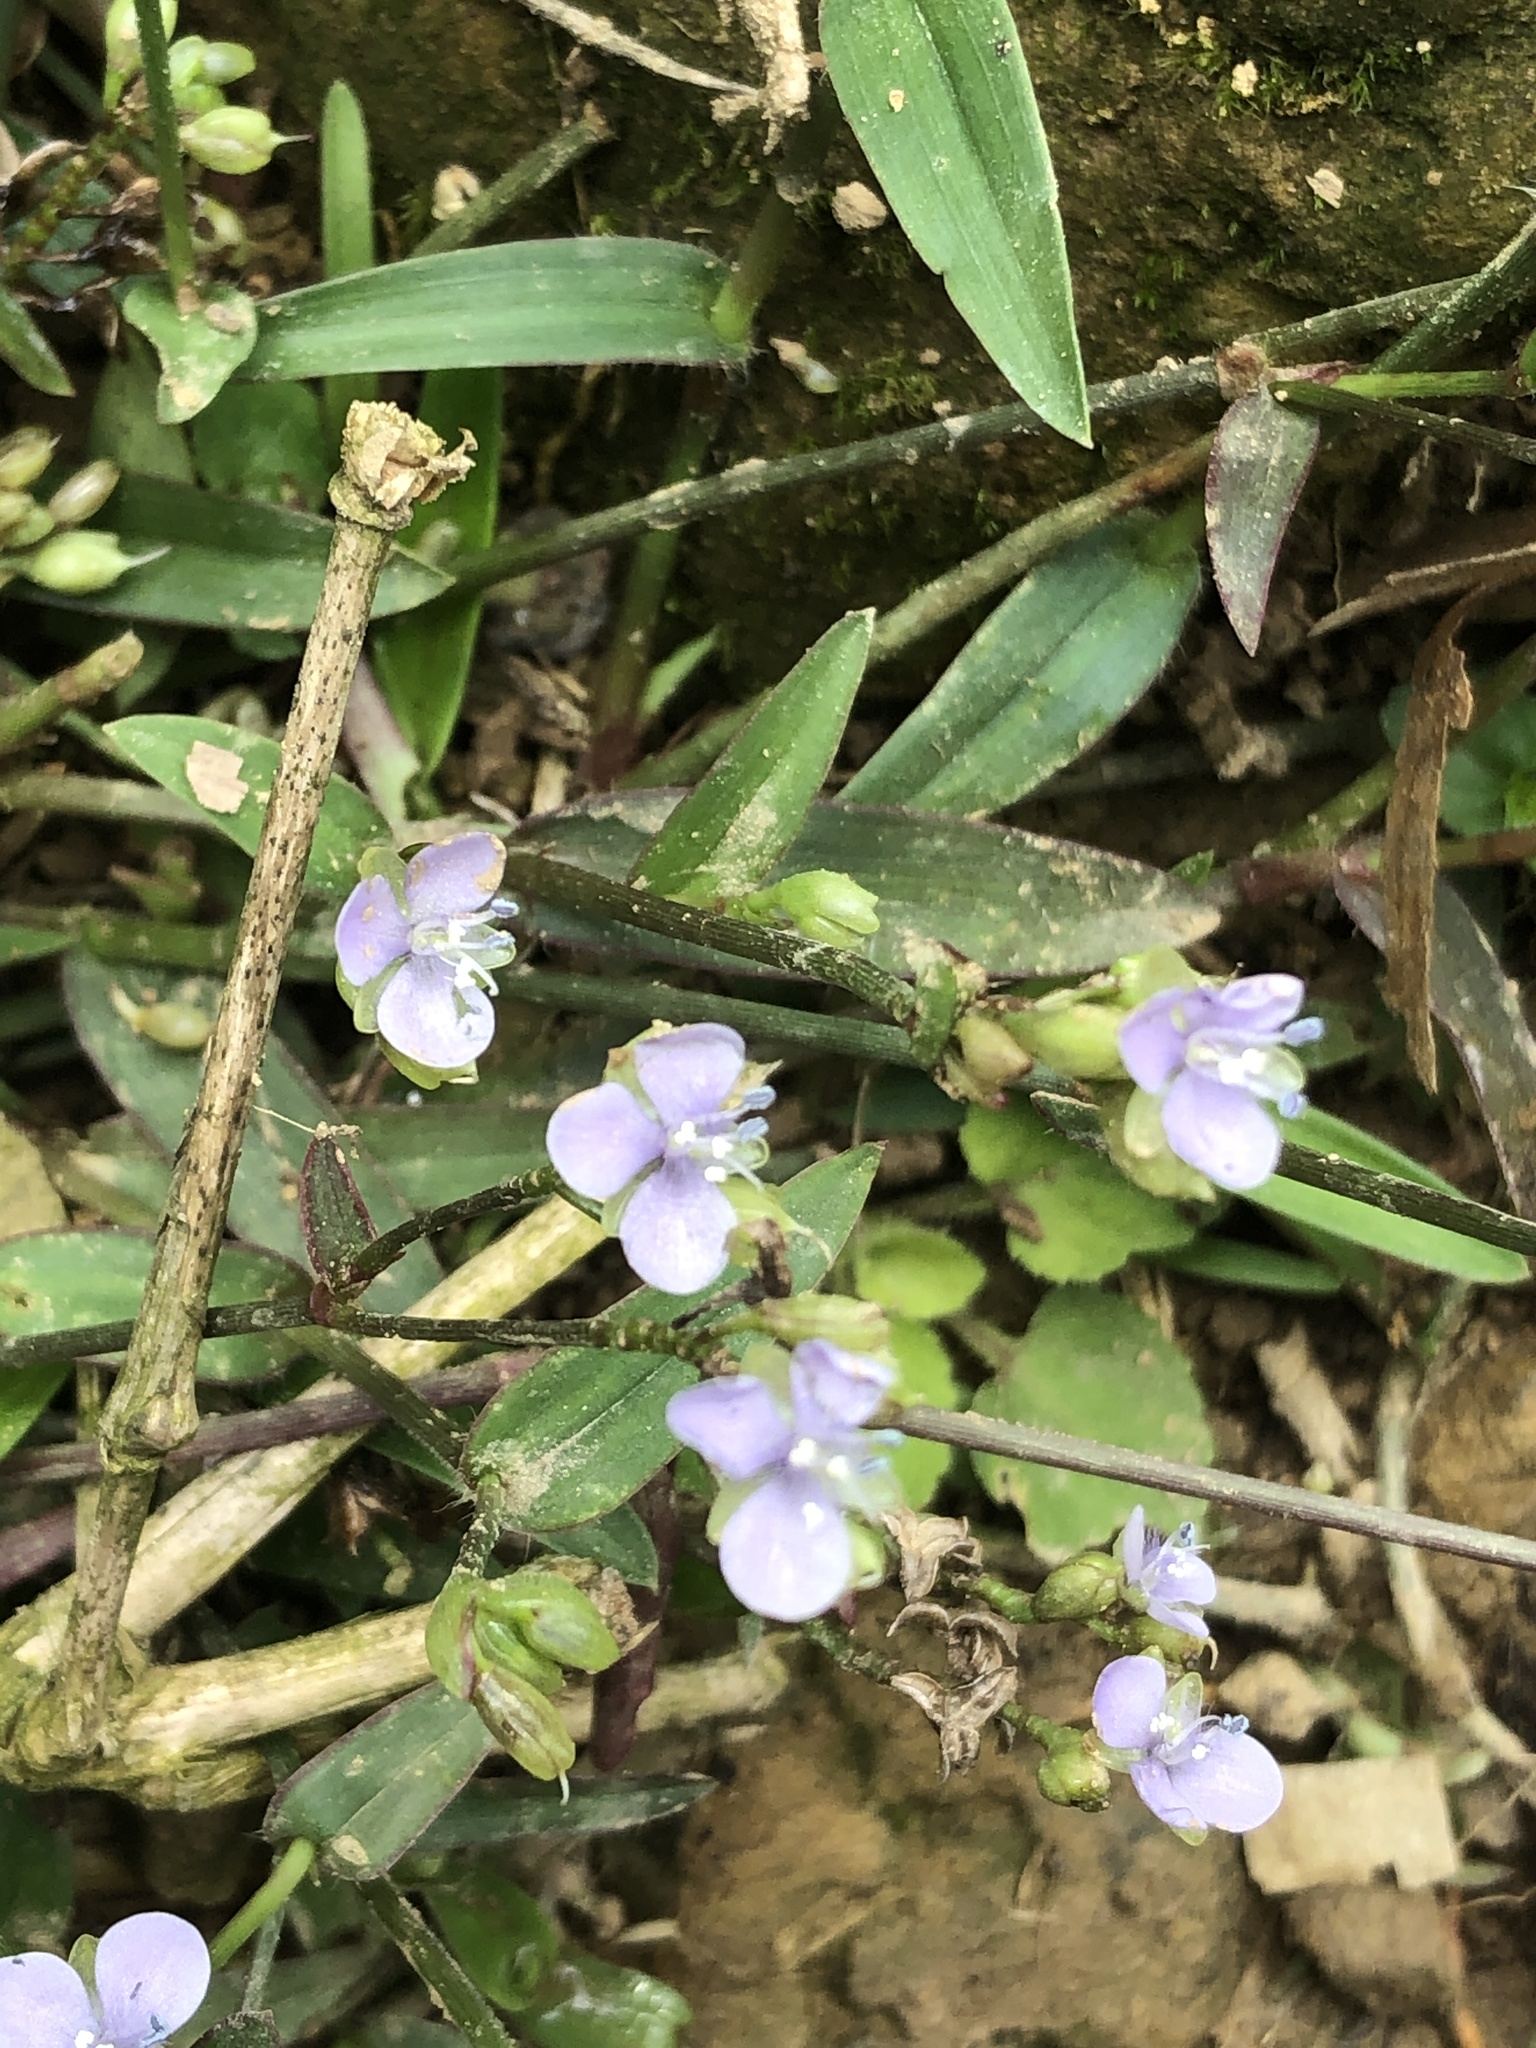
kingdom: Plantae
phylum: Tracheophyta
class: Liliopsida
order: Commelinales
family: Commelinaceae
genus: Murdannia
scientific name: Murdannia loriformis
